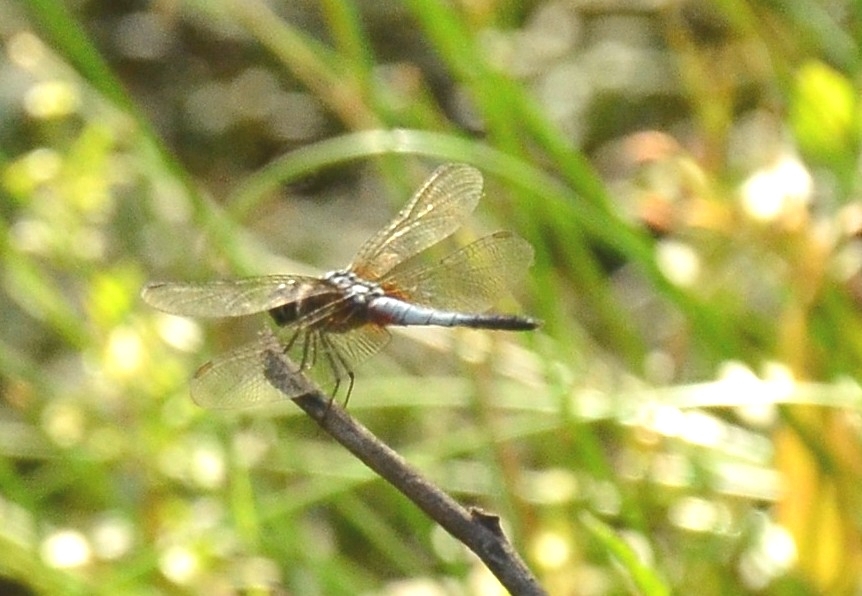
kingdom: Animalia
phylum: Arthropoda
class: Insecta
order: Odonata
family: Libellulidae
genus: Brachydiplax
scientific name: Brachydiplax chalybea
